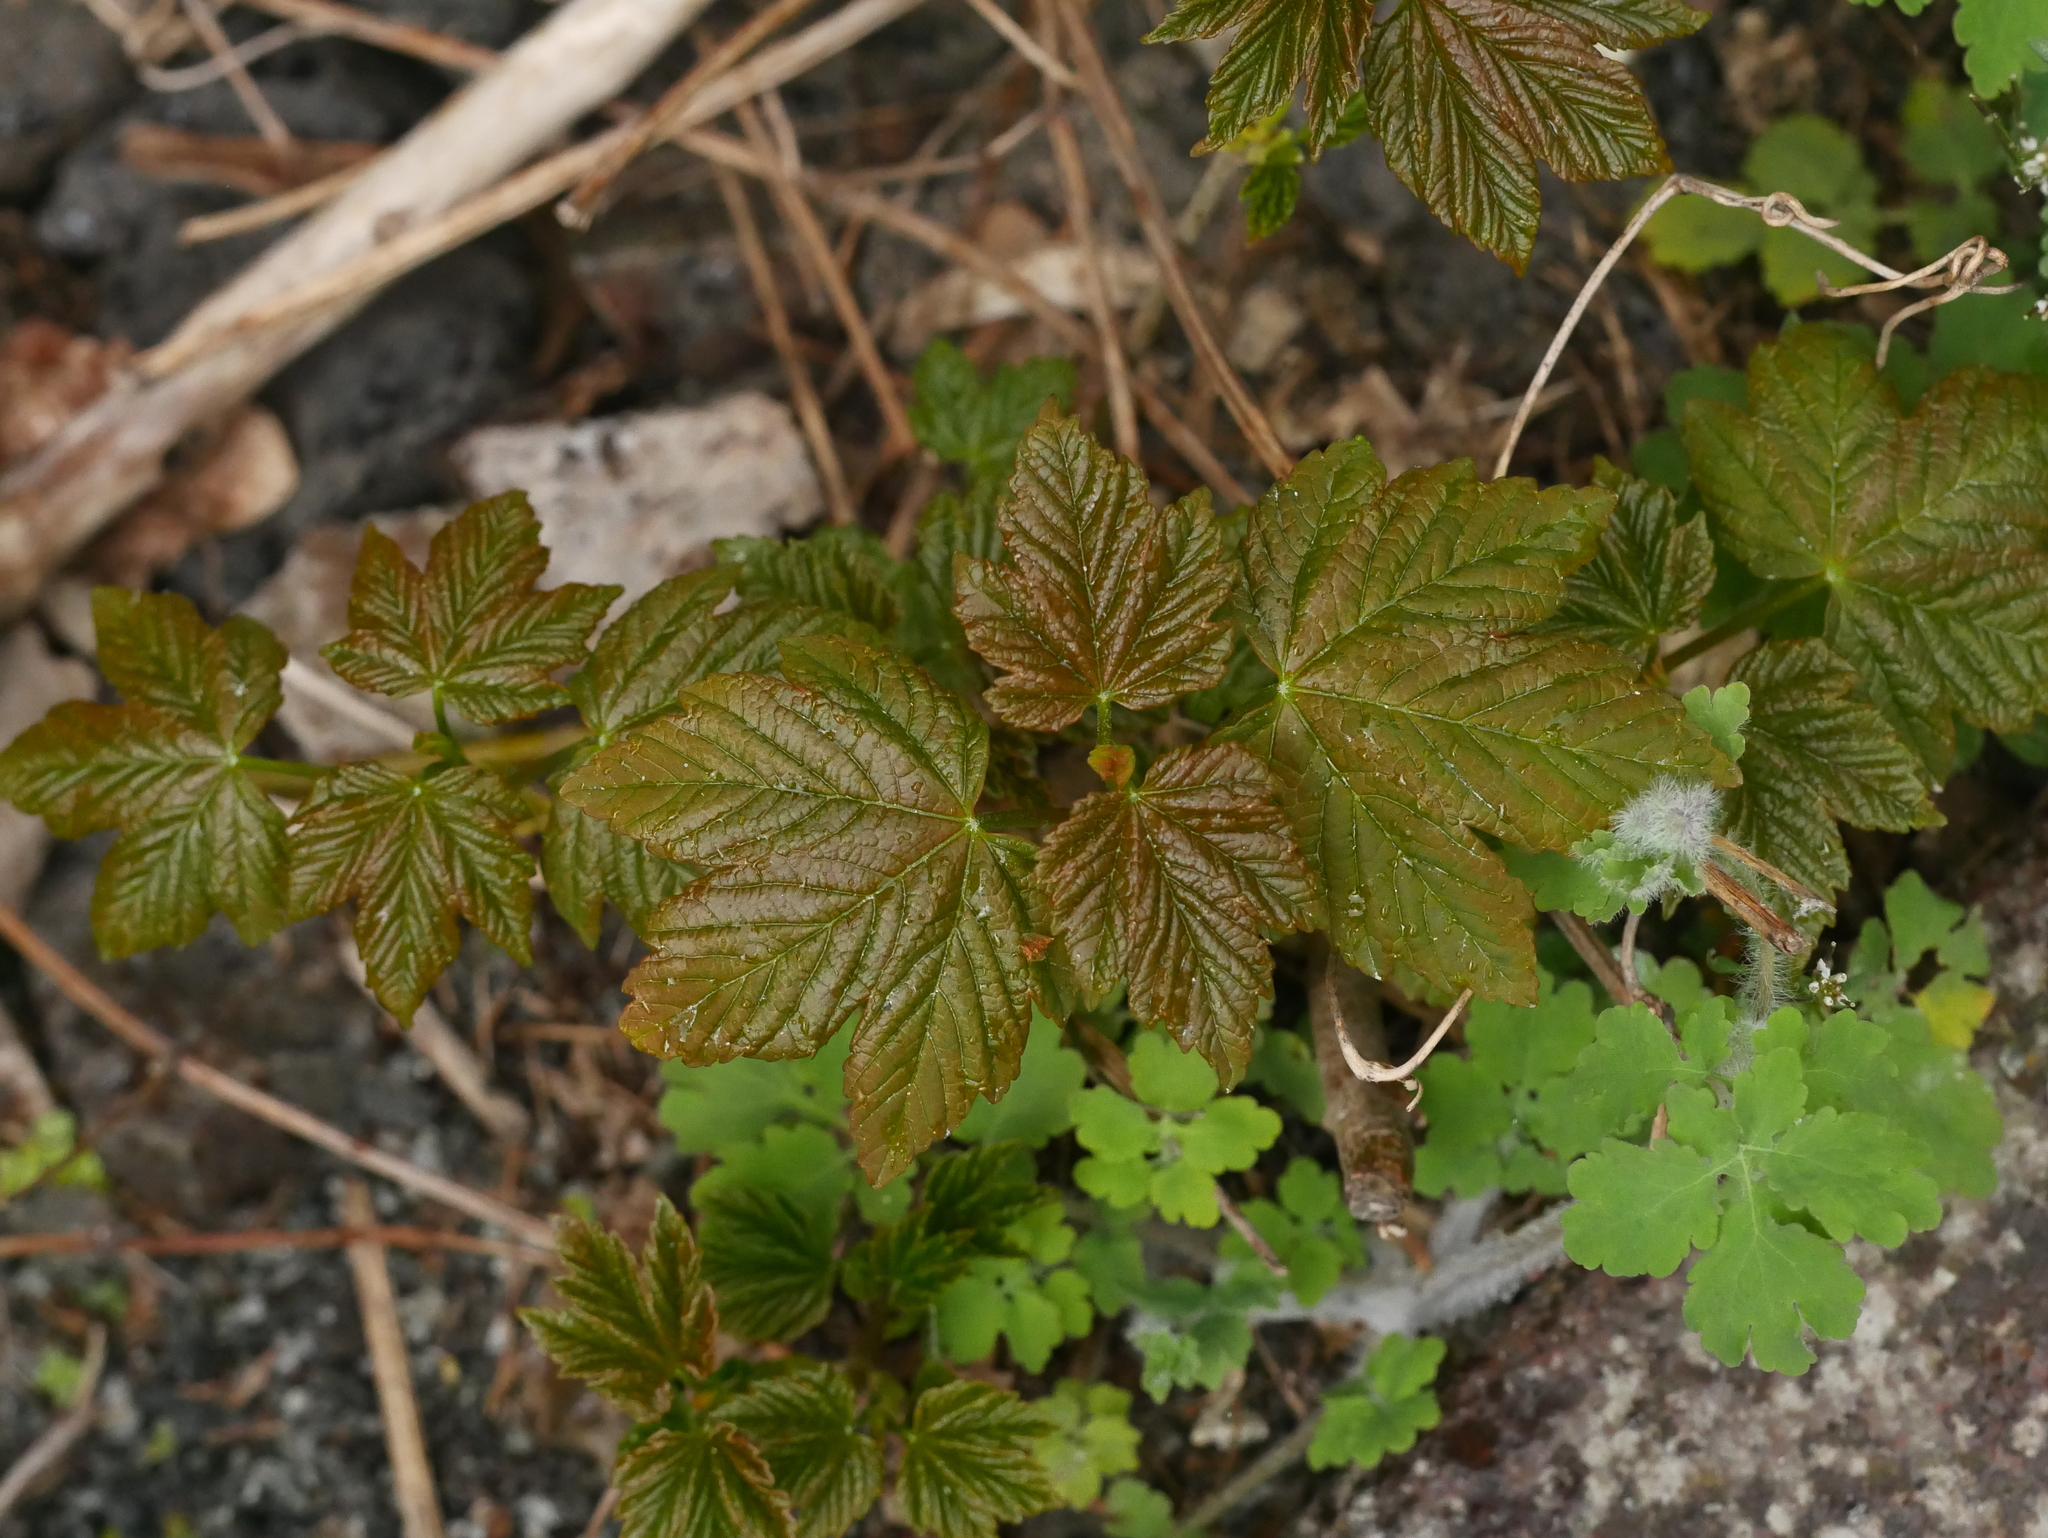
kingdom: Plantae
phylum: Tracheophyta
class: Magnoliopsida
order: Sapindales
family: Sapindaceae
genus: Acer
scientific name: Acer pseudoplatanus
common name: Sycamore
